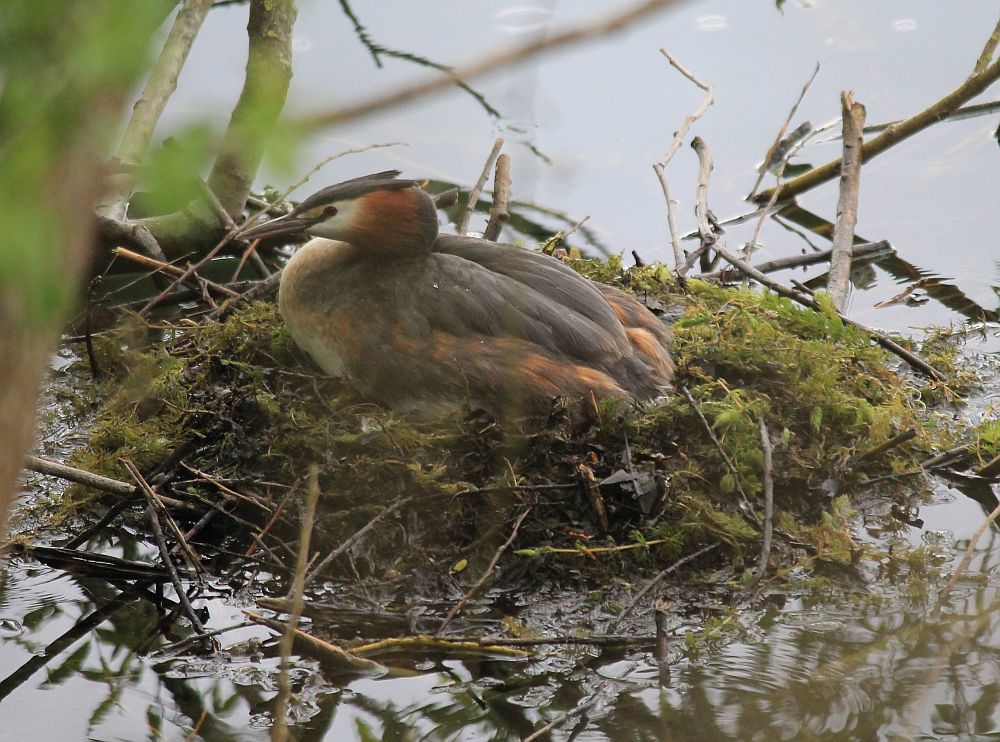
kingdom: Animalia
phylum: Chordata
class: Aves
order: Podicipediformes
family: Podicipedidae
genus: Podiceps
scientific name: Podiceps cristatus
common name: Great crested grebe
